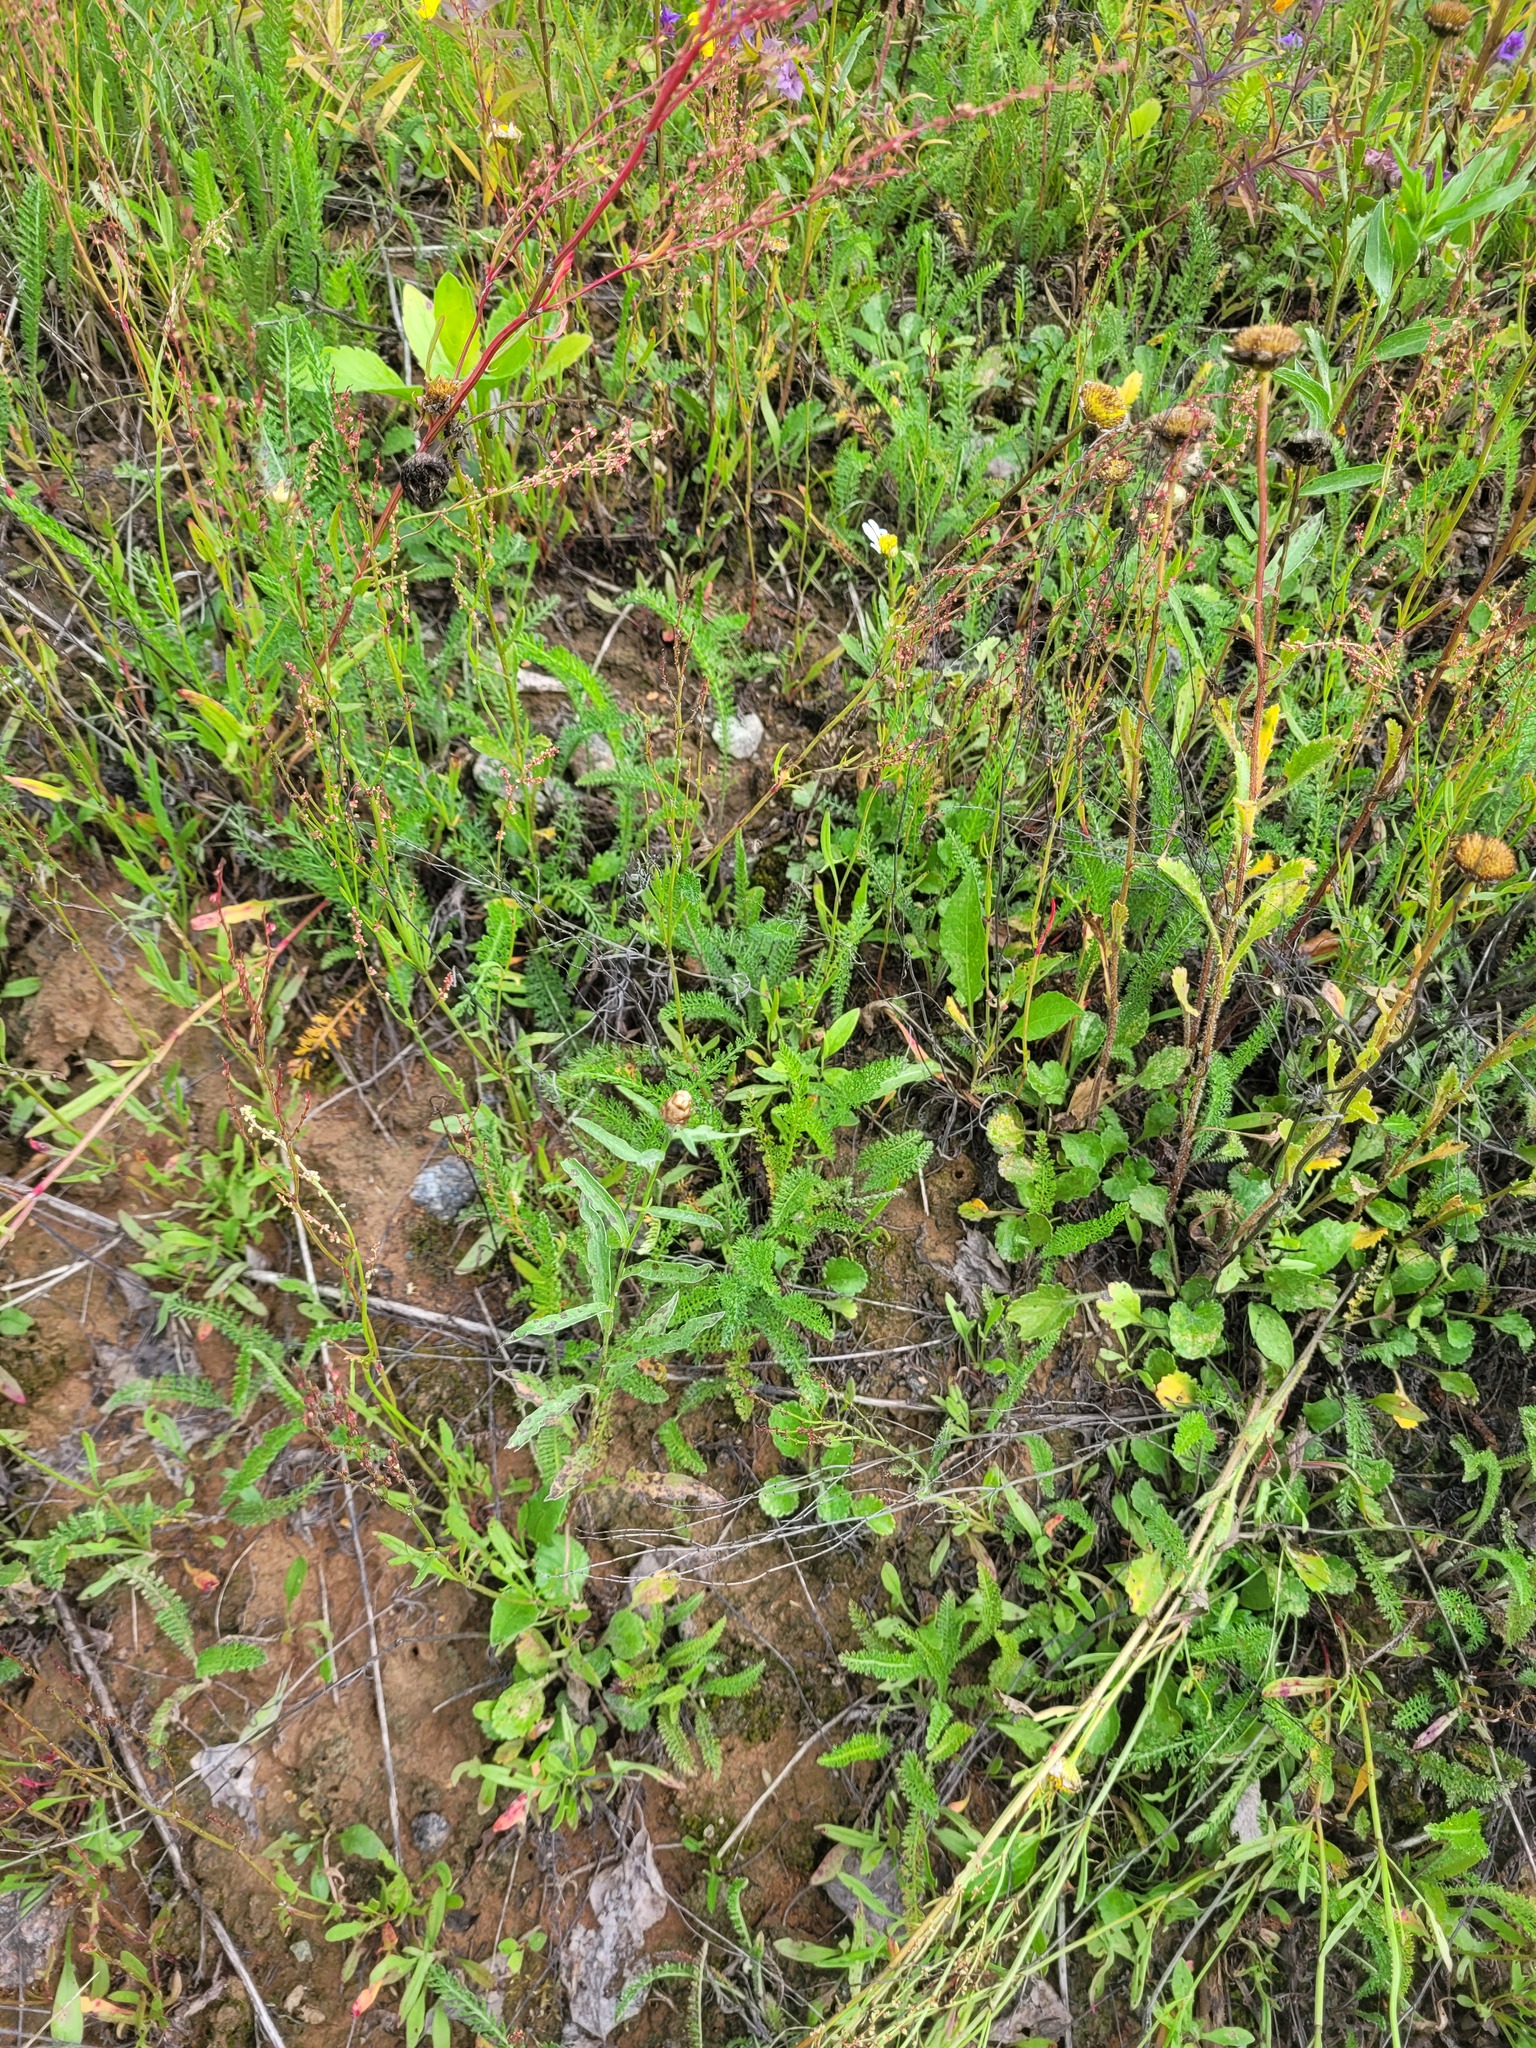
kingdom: Plantae
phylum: Tracheophyta
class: Magnoliopsida
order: Caryophyllales
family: Polygonaceae
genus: Rumex
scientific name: Rumex acetosella
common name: Common sheep sorrel
